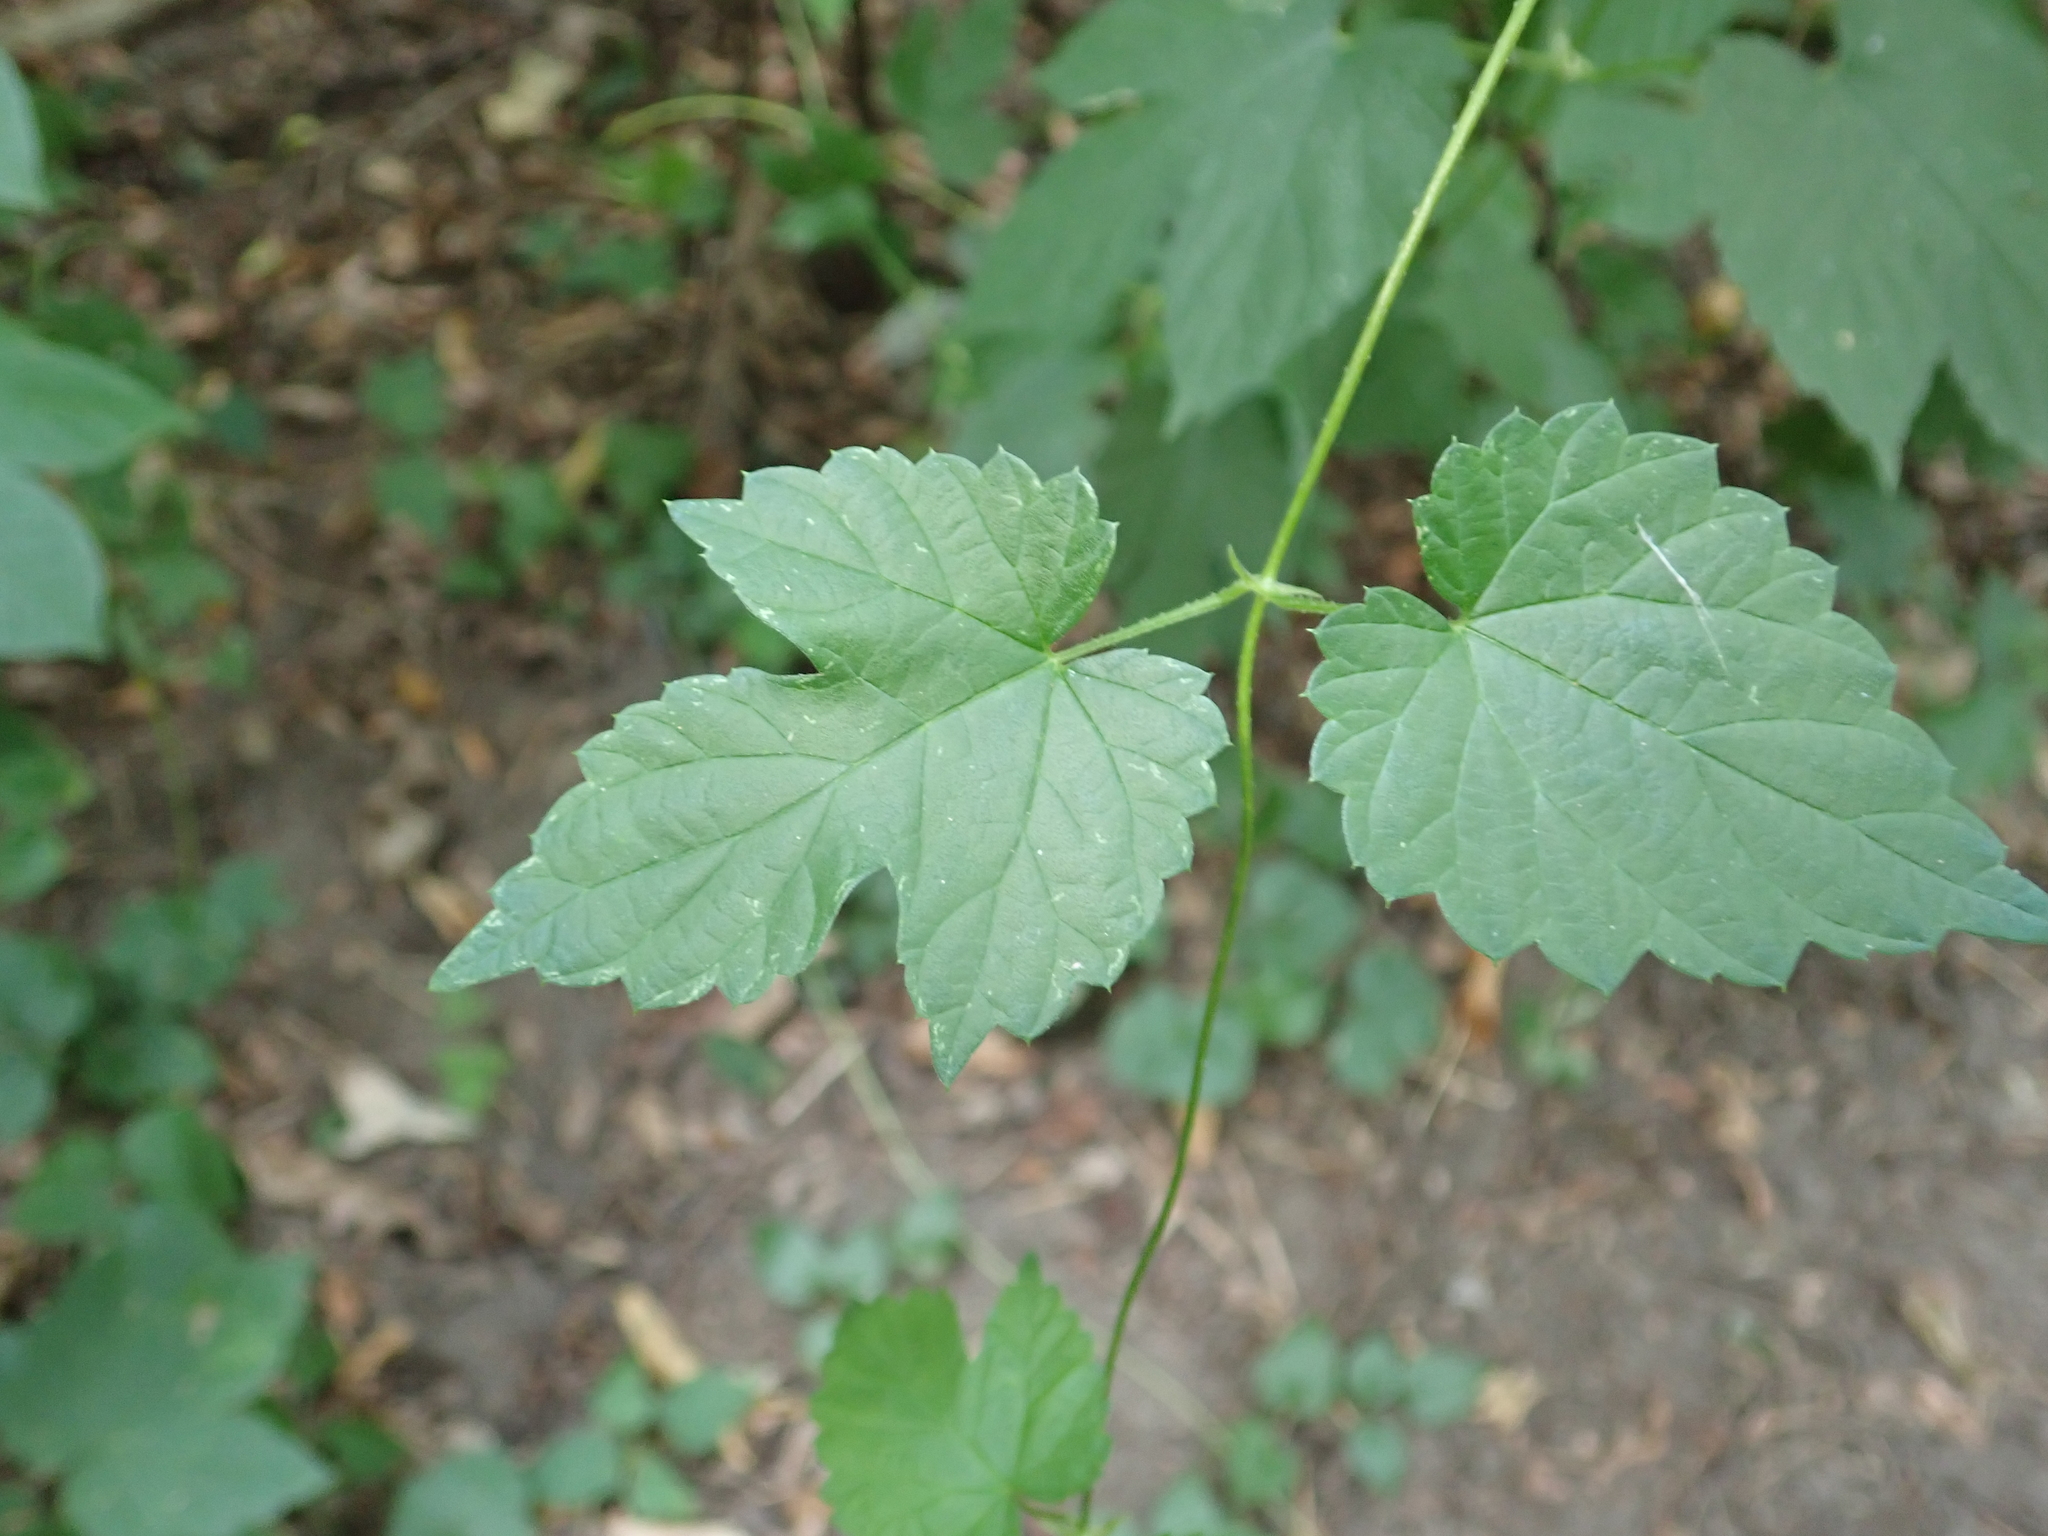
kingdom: Plantae
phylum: Tracheophyta
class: Magnoliopsida
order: Rosales
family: Cannabaceae
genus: Humulus
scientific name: Humulus lupulus
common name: Hop
